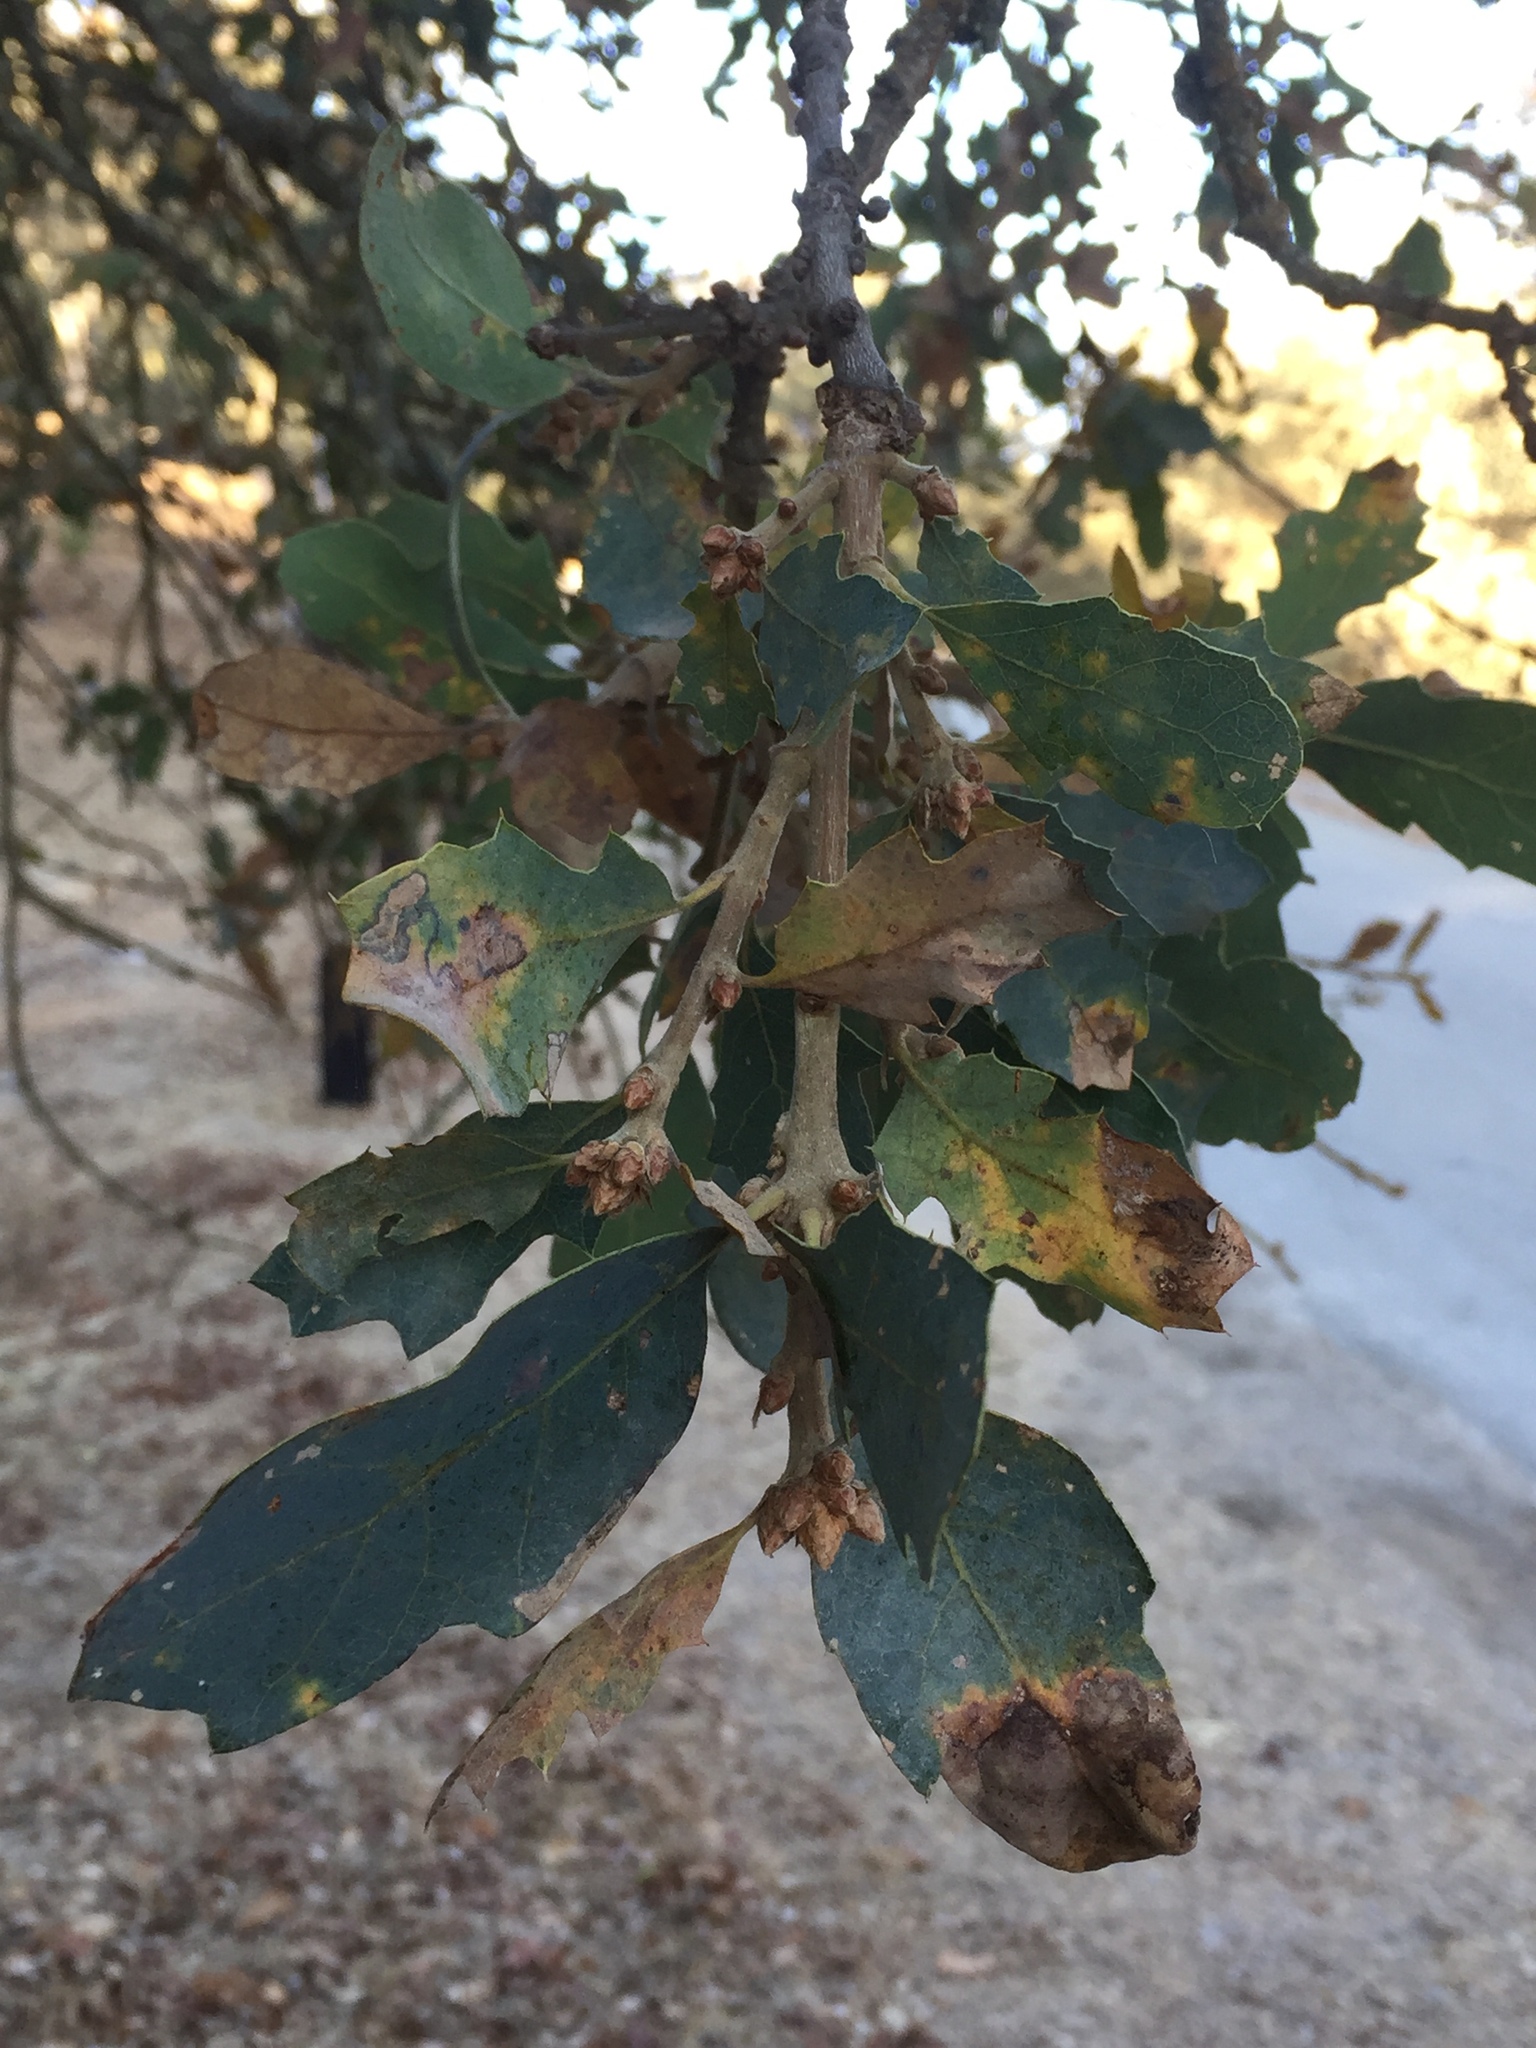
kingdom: Plantae
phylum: Tracheophyta
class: Magnoliopsida
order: Fagales
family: Fagaceae
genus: Quercus
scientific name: Quercus douglasii
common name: Blue oak
